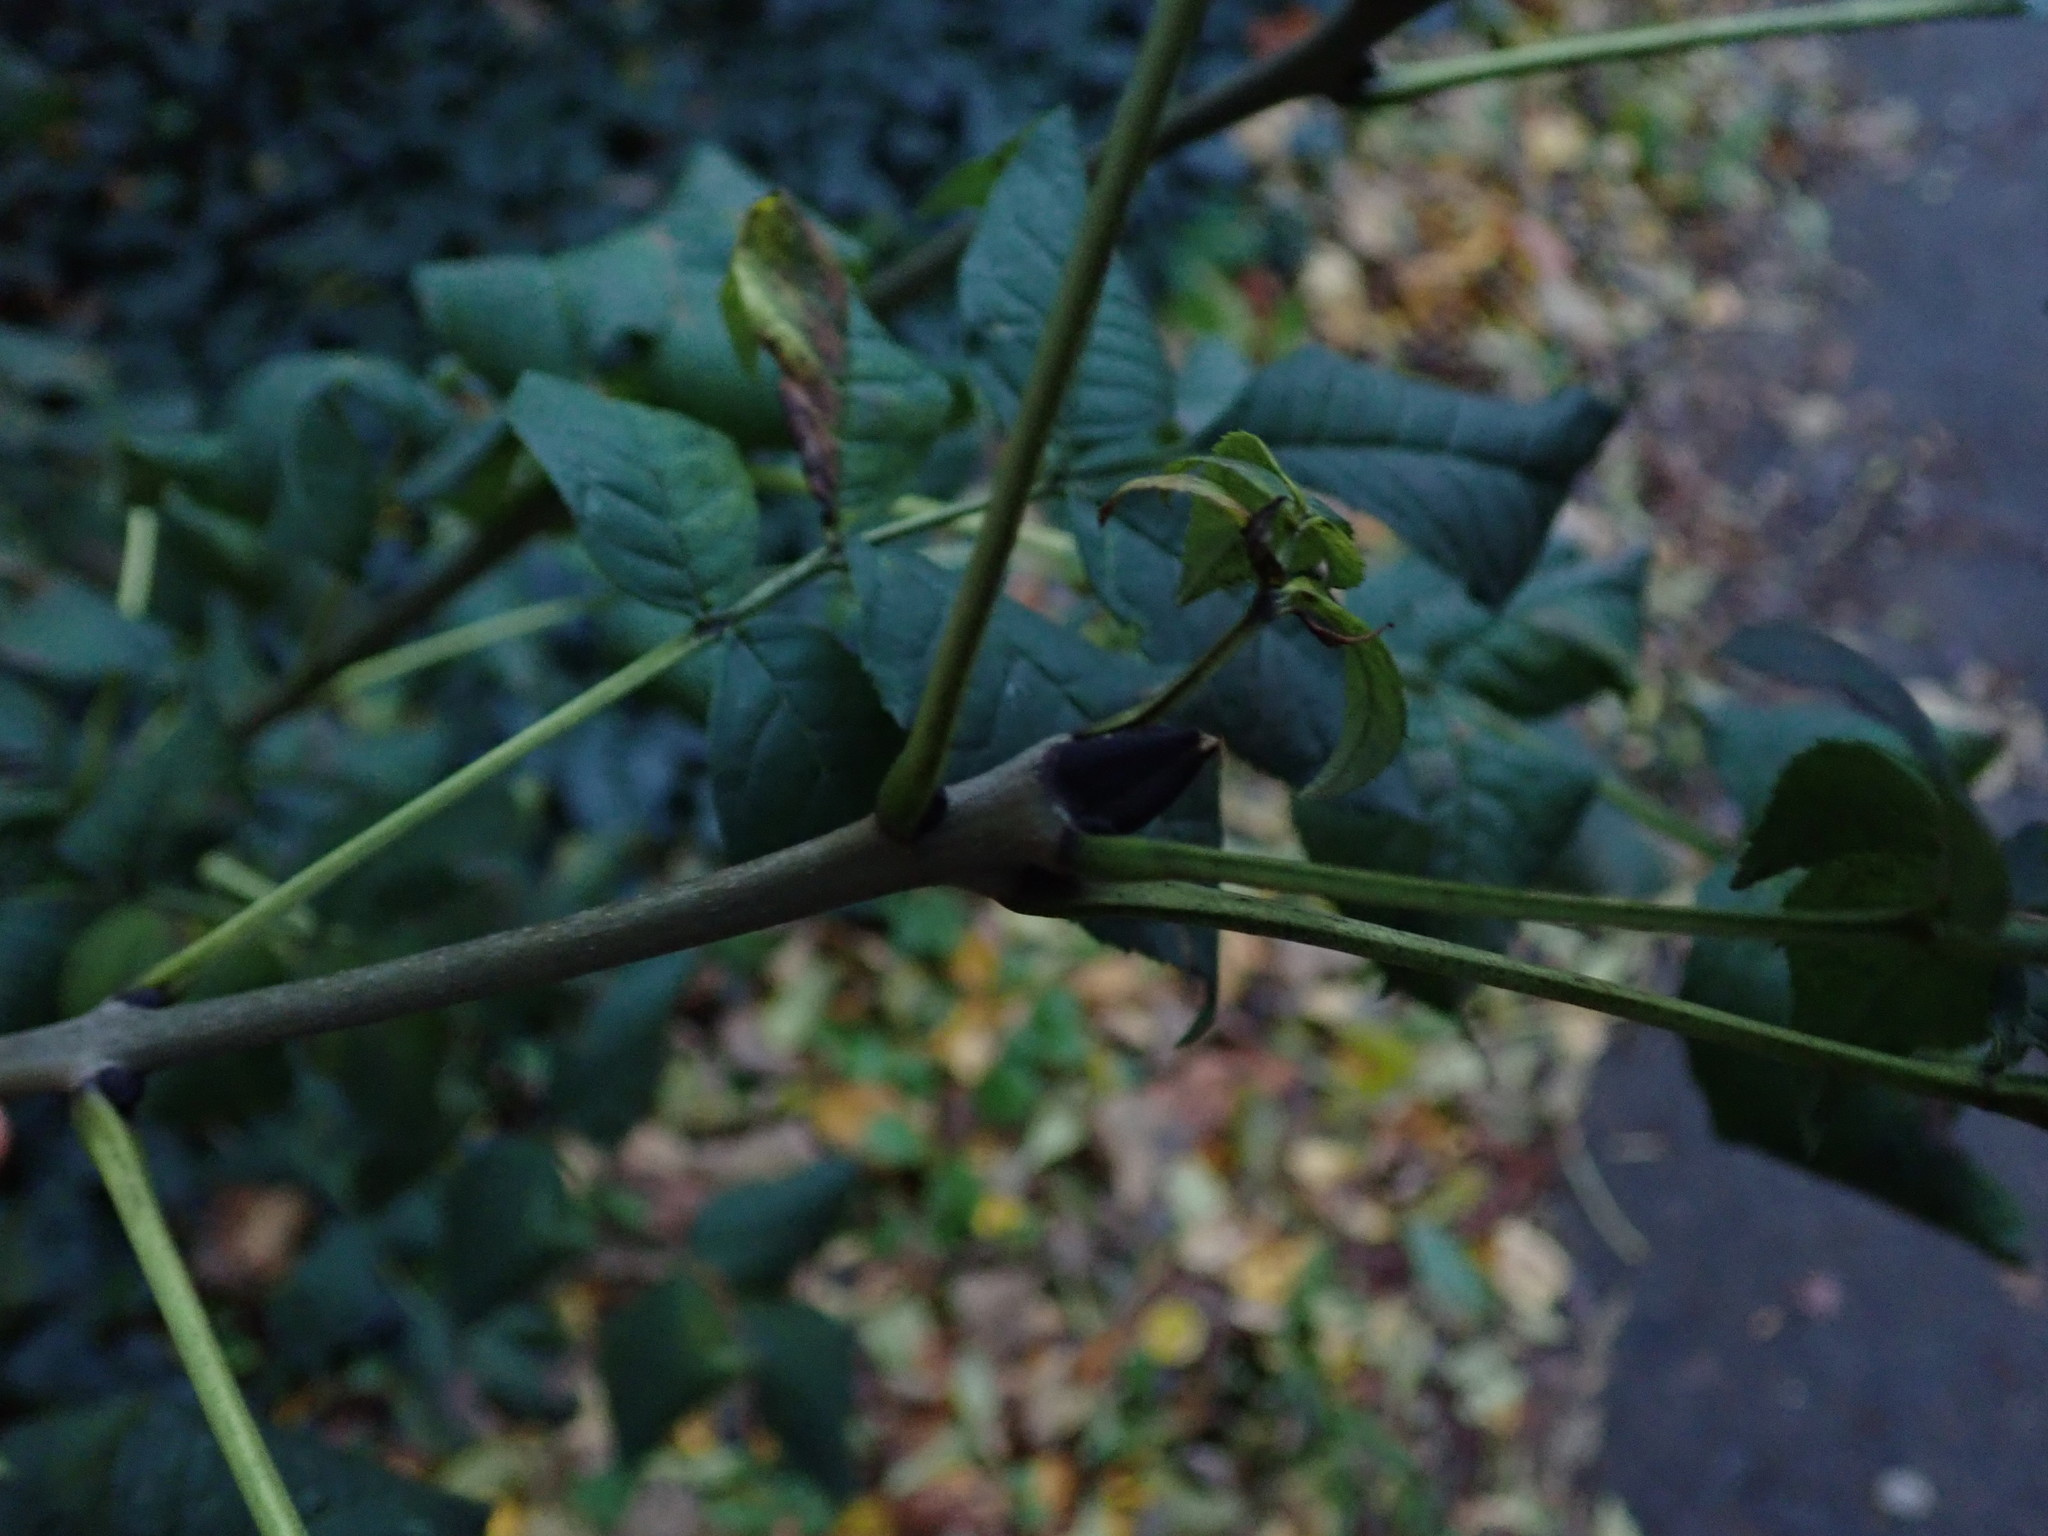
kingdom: Plantae
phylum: Tracheophyta
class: Magnoliopsida
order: Lamiales
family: Oleaceae
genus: Fraxinus
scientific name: Fraxinus excelsior
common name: European ash
